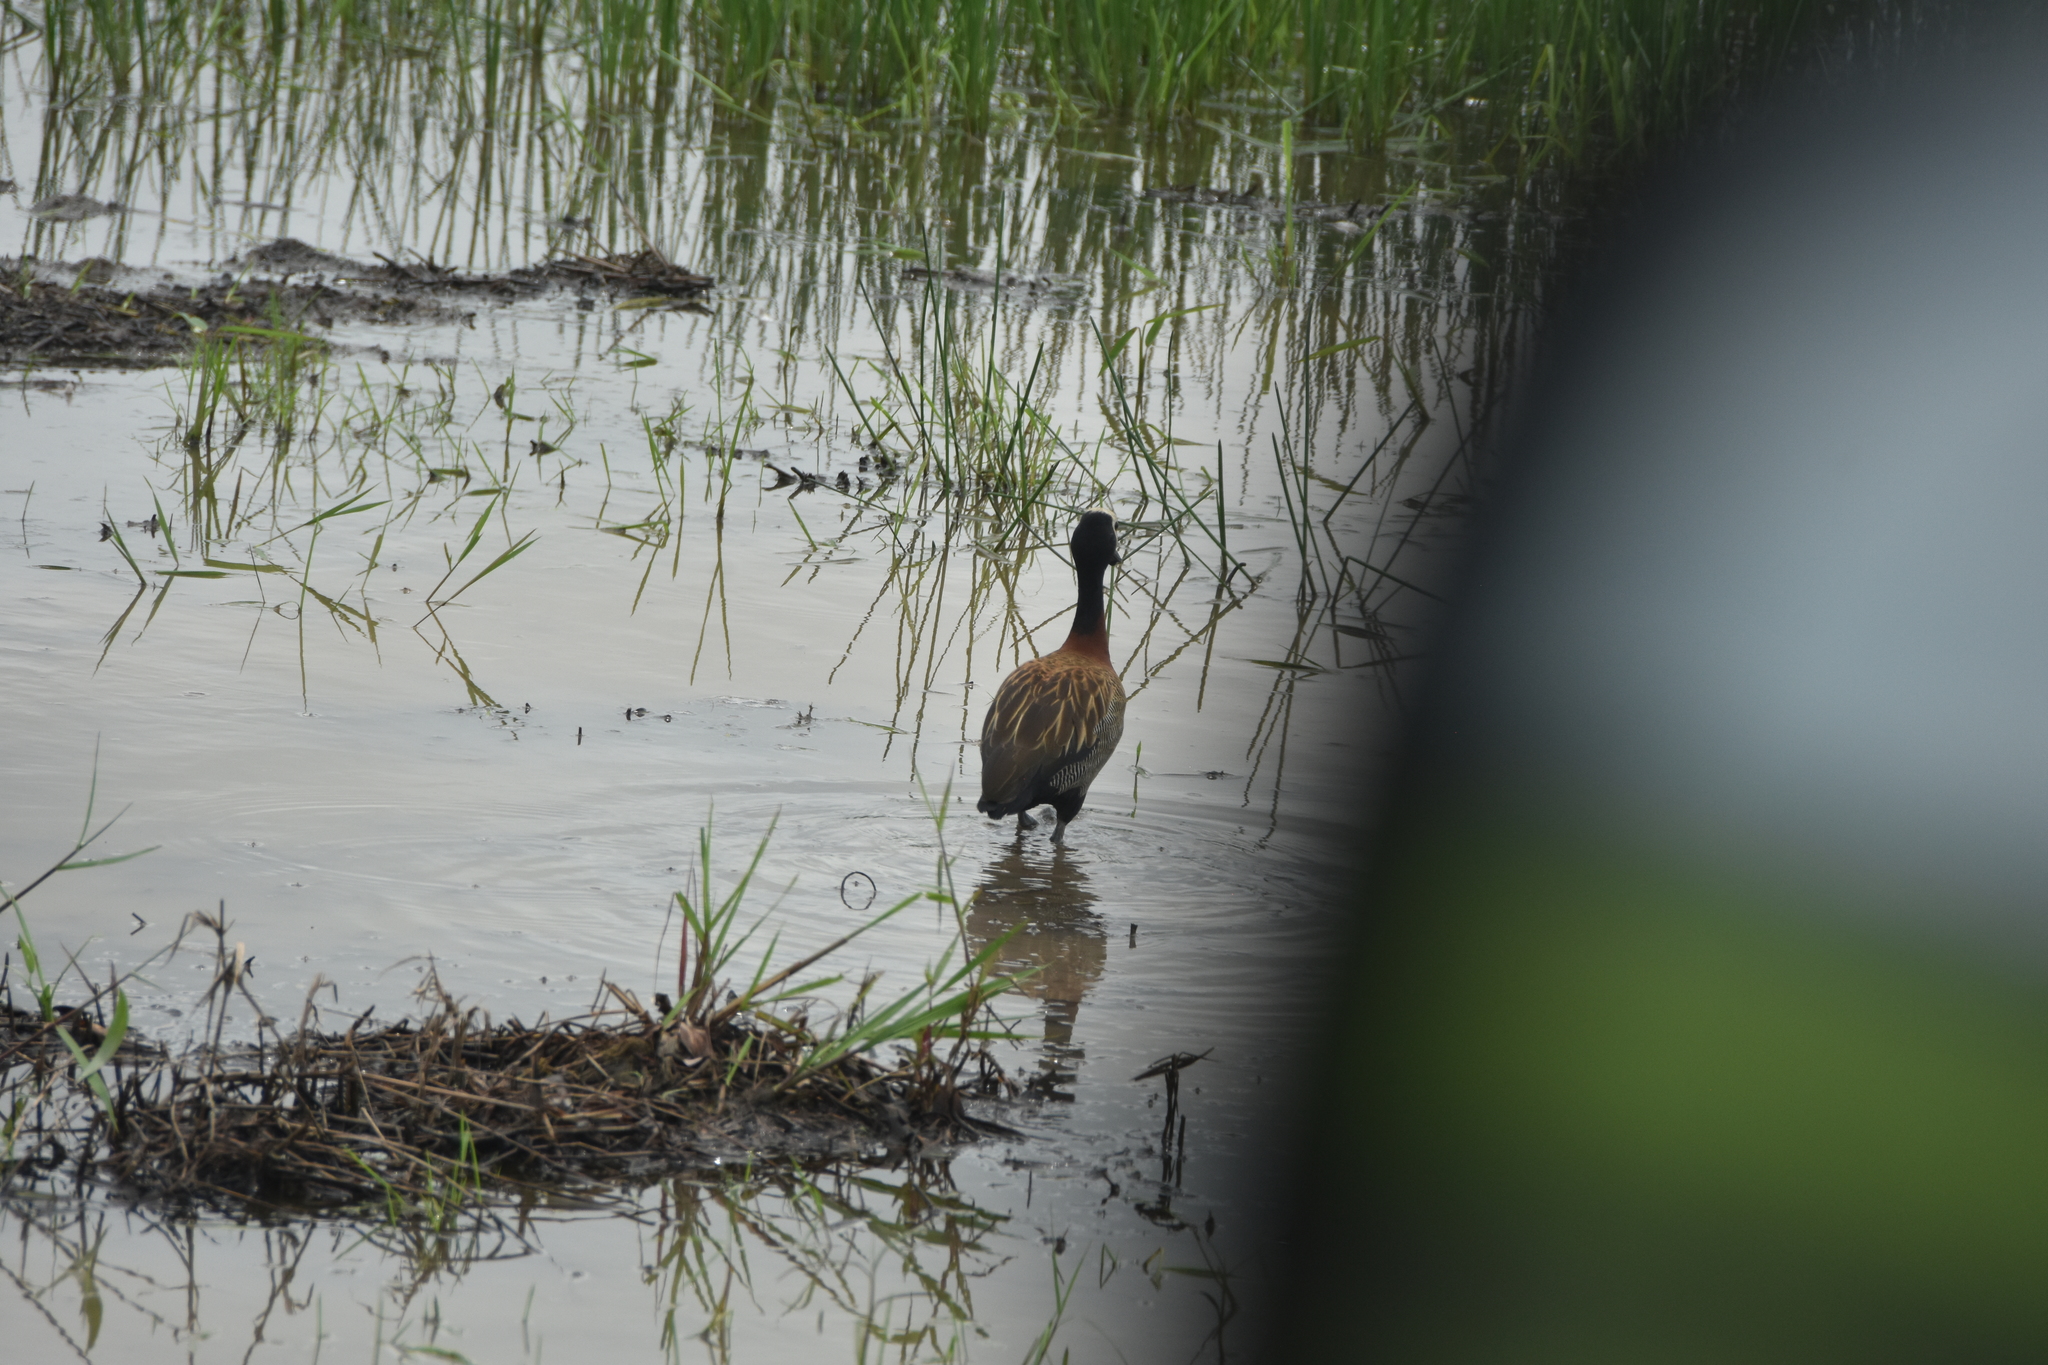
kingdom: Animalia
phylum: Chordata
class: Aves
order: Anseriformes
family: Anatidae
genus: Dendrocygna
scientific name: Dendrocygna viduata
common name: White-faced whistling duck
